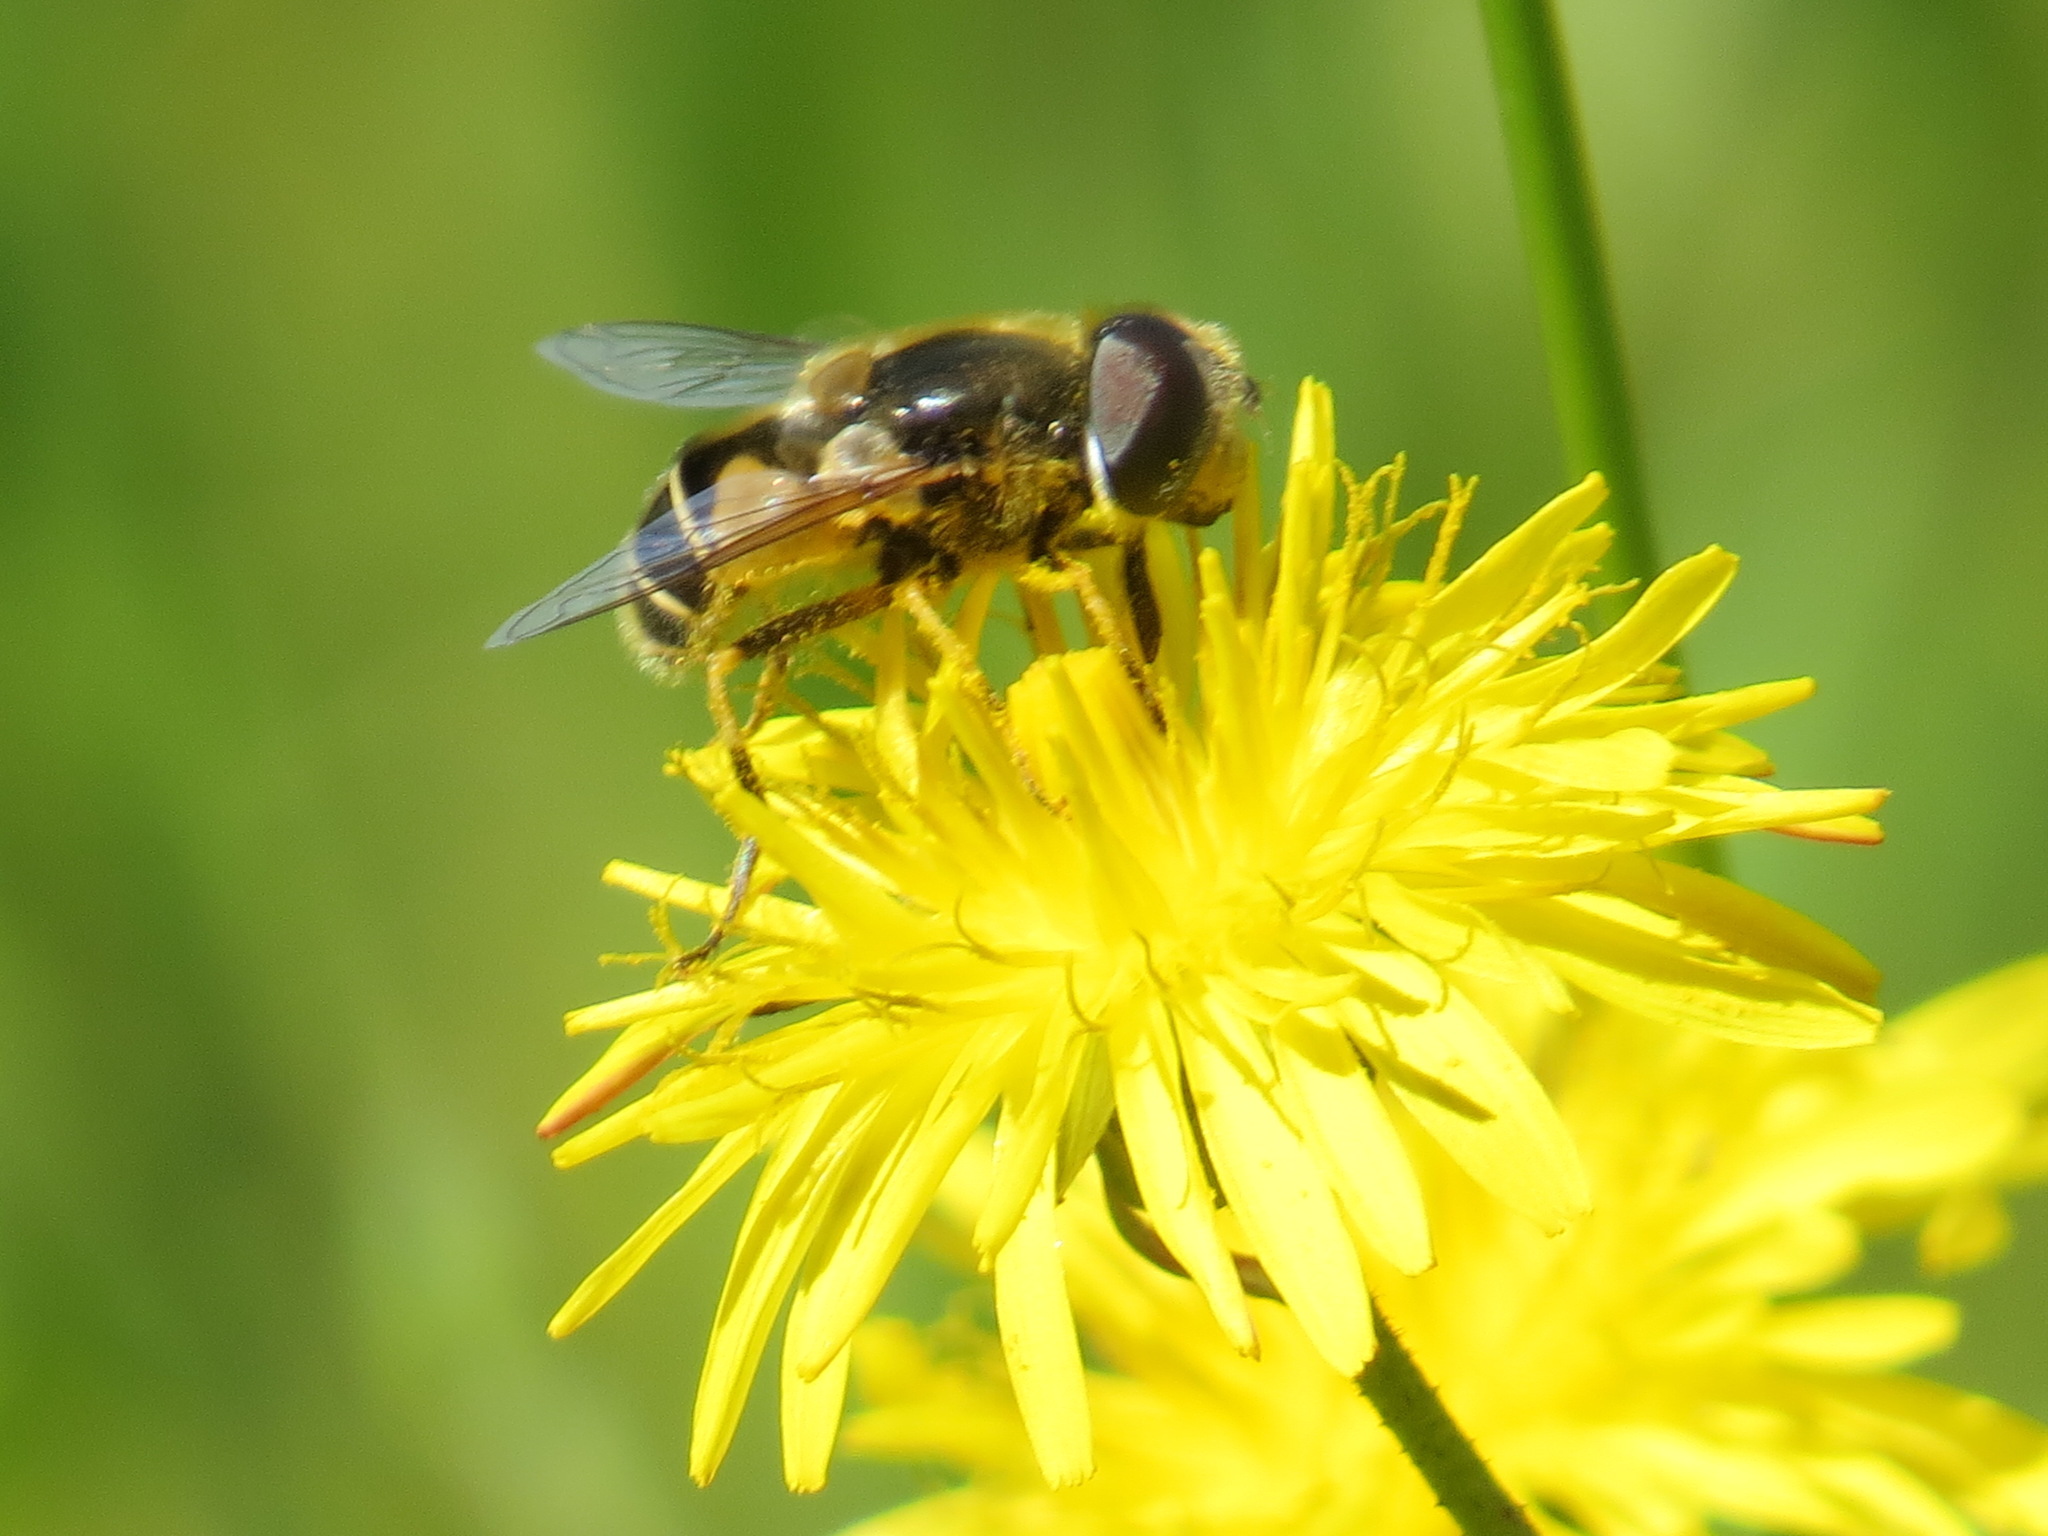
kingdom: Animalia
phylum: Arthropoda
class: Insecta
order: Diptera
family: Syrphidae
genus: Eristalis
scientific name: Eristalis hirta
